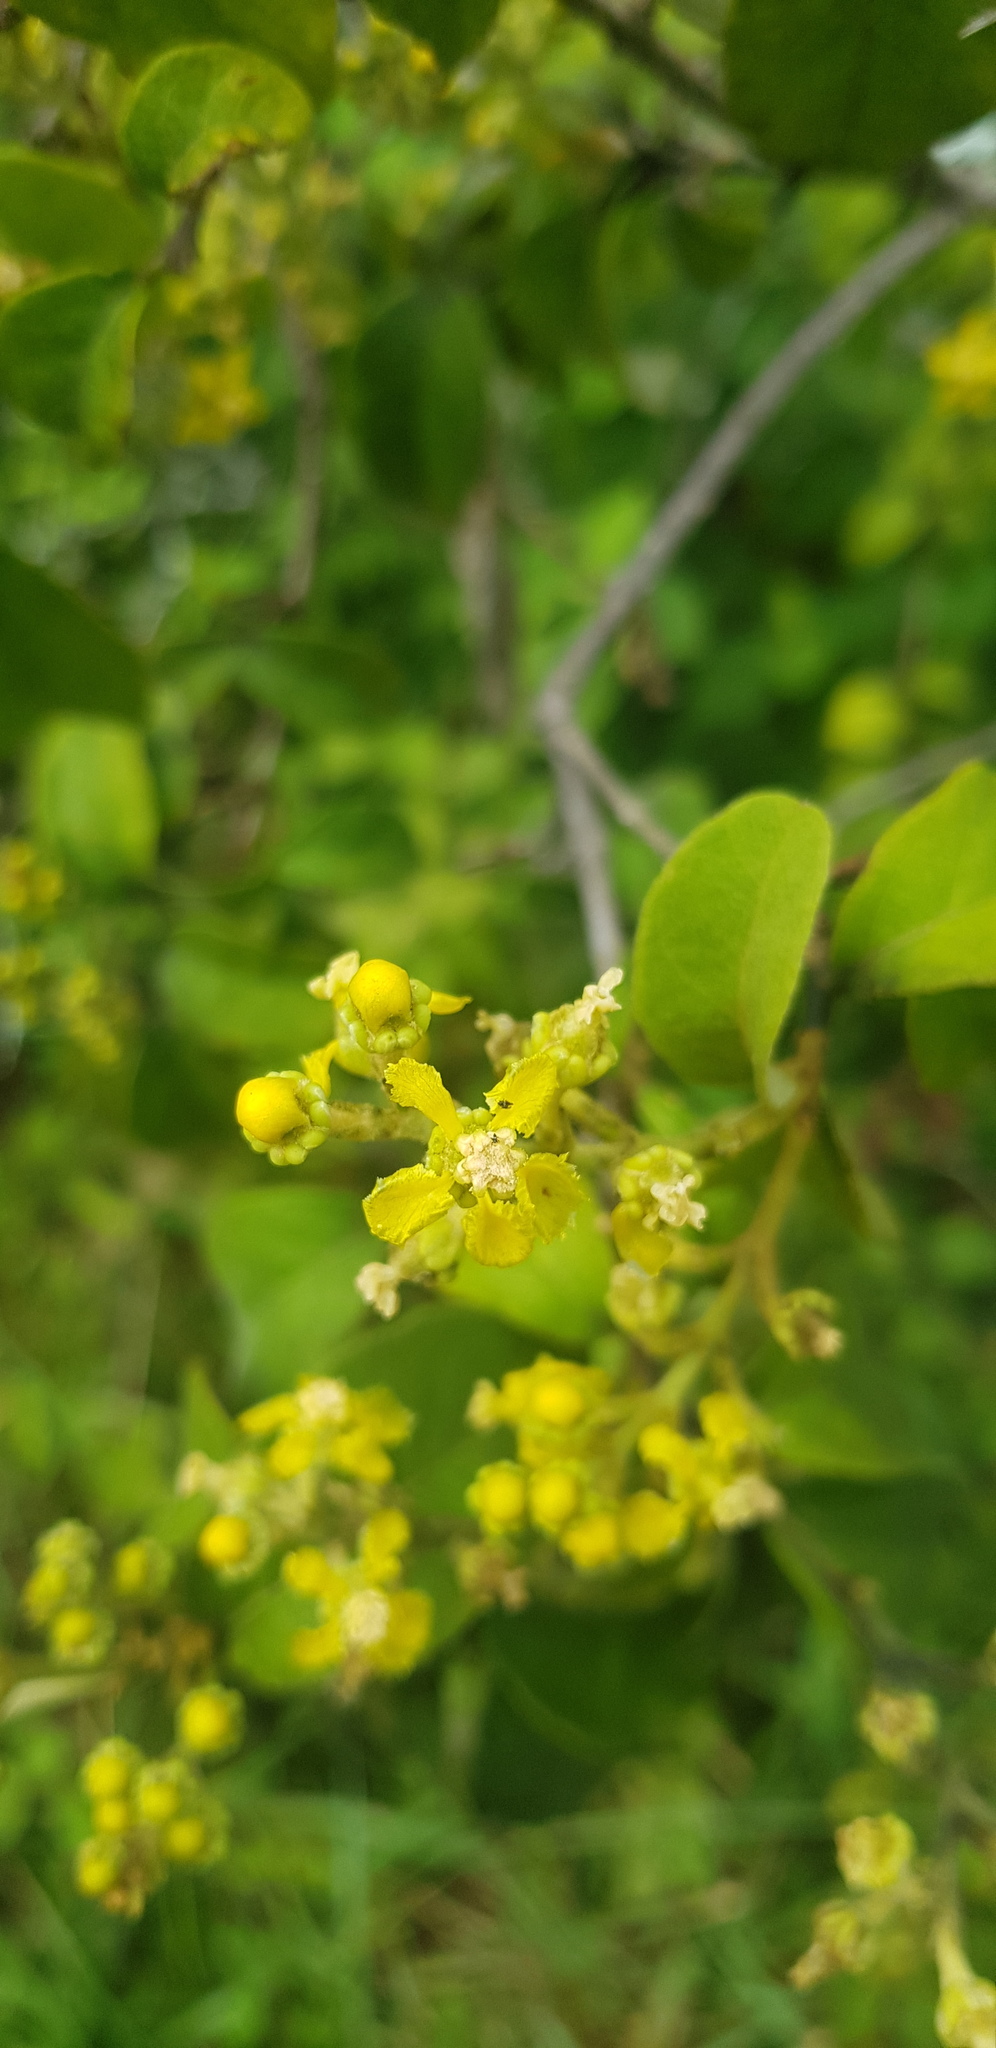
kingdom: Plantae
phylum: Tracheophyta
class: Magnoliopsida
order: Malpighiales
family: Malpighiaceae
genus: Callaeum
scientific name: Callaeum macropterum
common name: Mexican butterfly-vine
